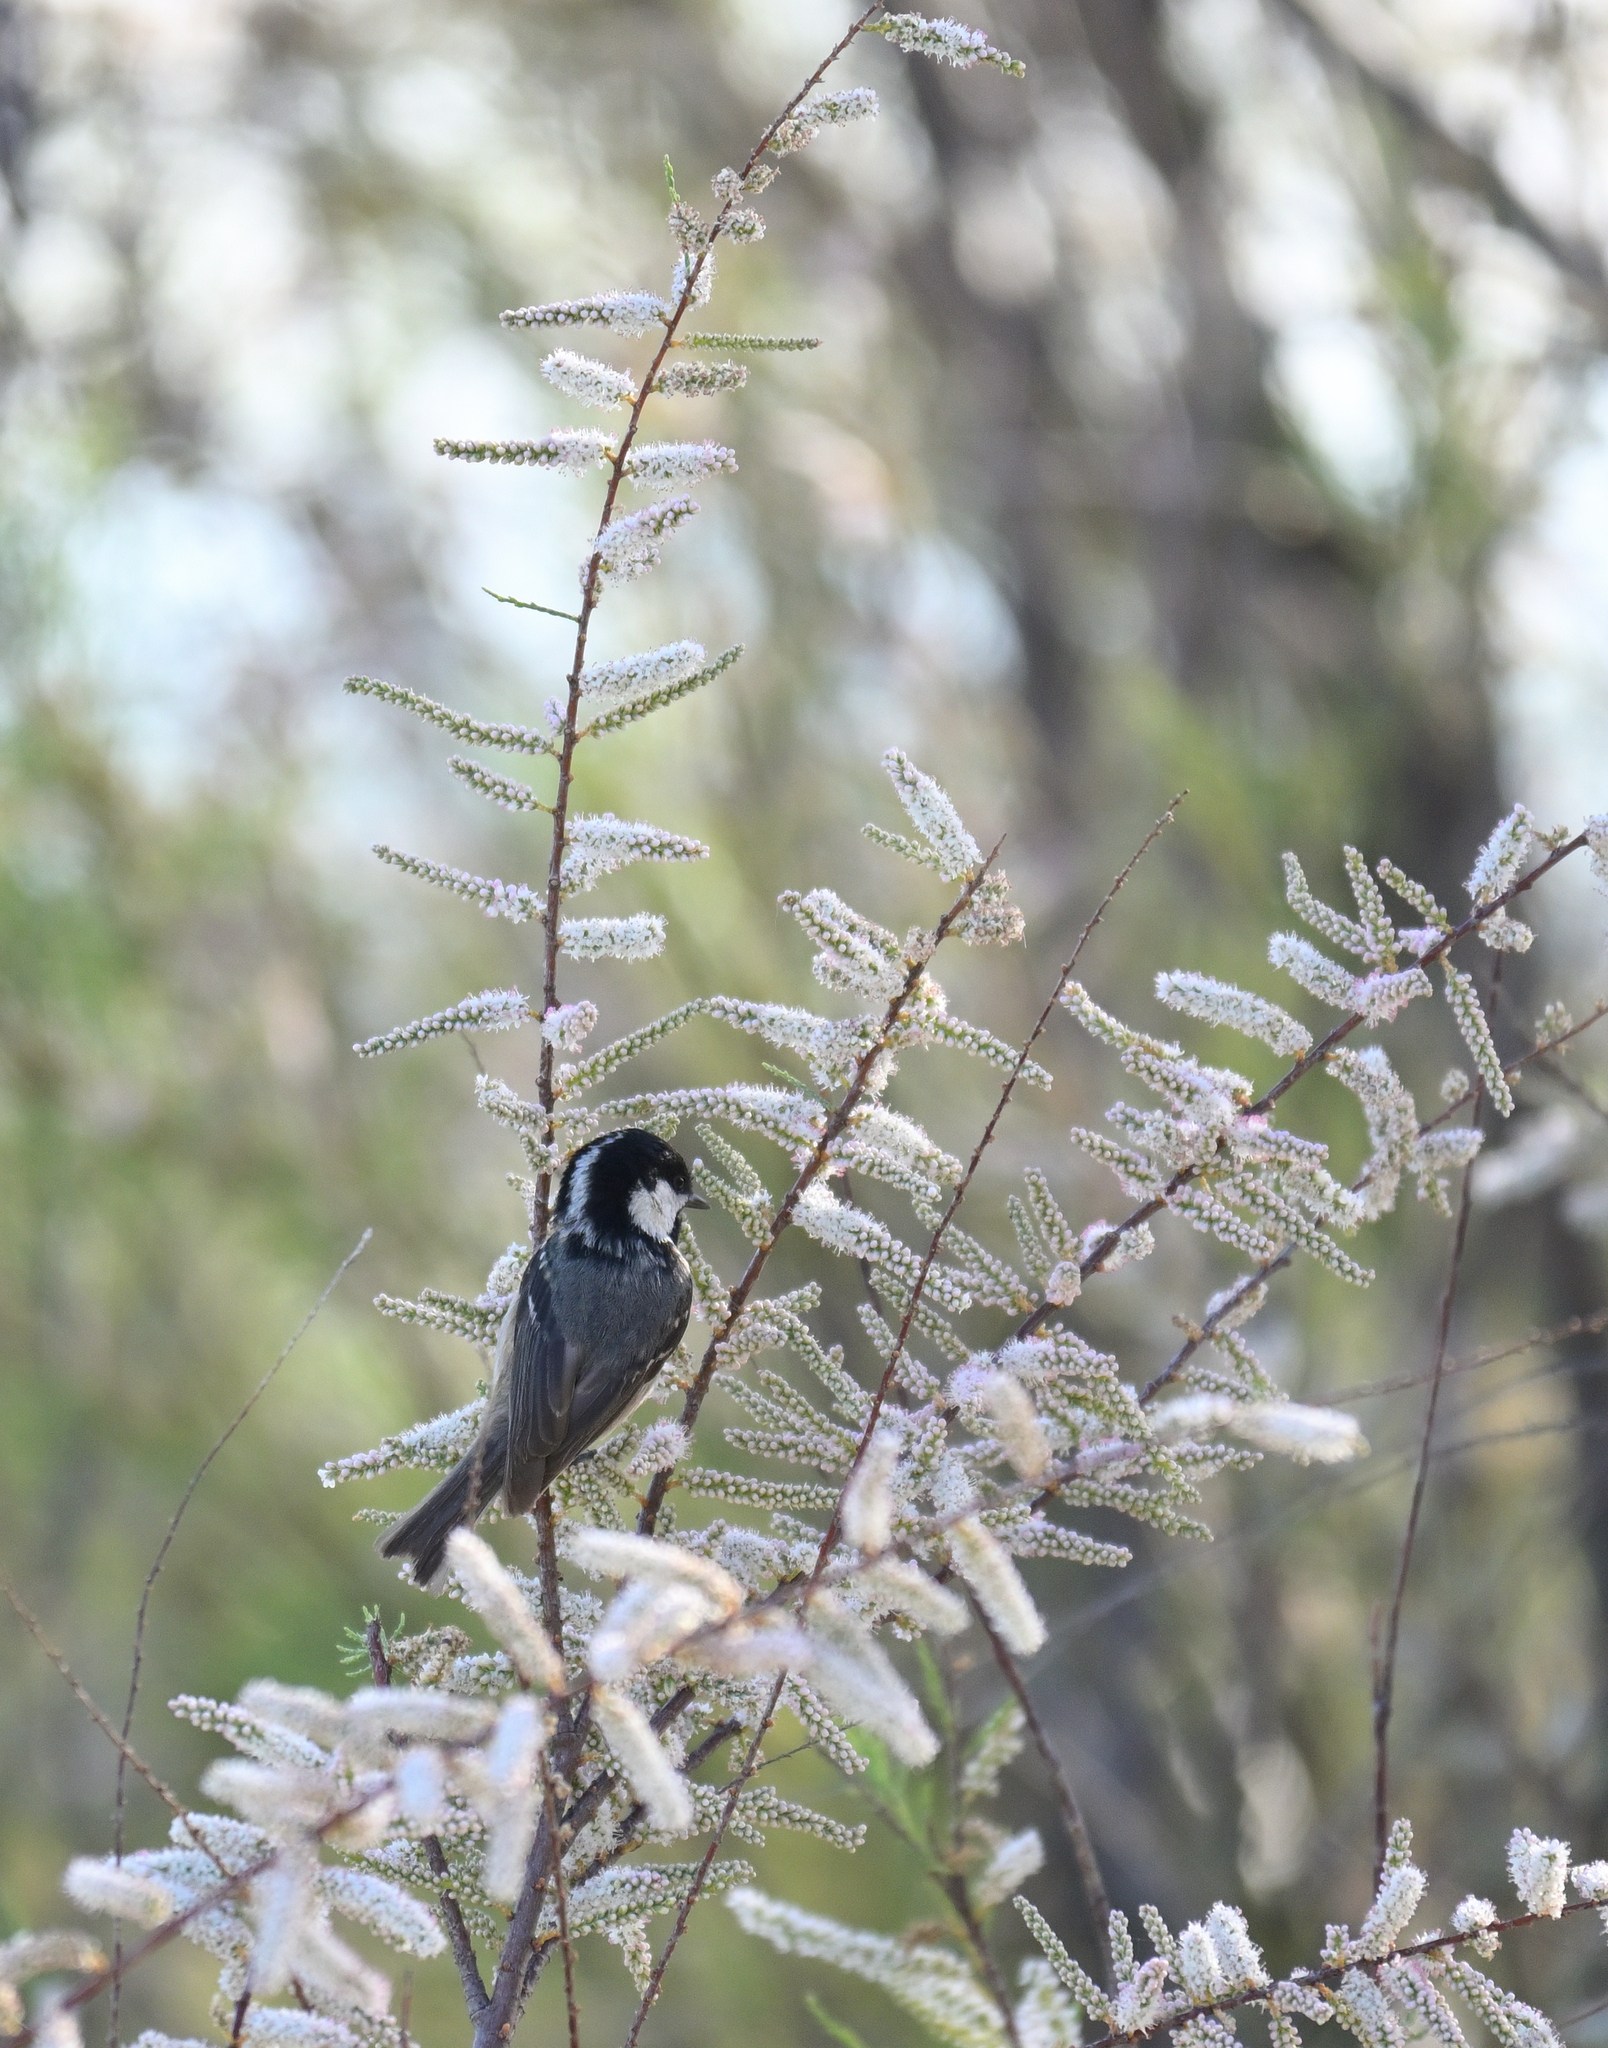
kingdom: Animalia
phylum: Chordata
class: Aves
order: Passeriformes
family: Paridae
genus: Periparus
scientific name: Periparus ater
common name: Coal tit
